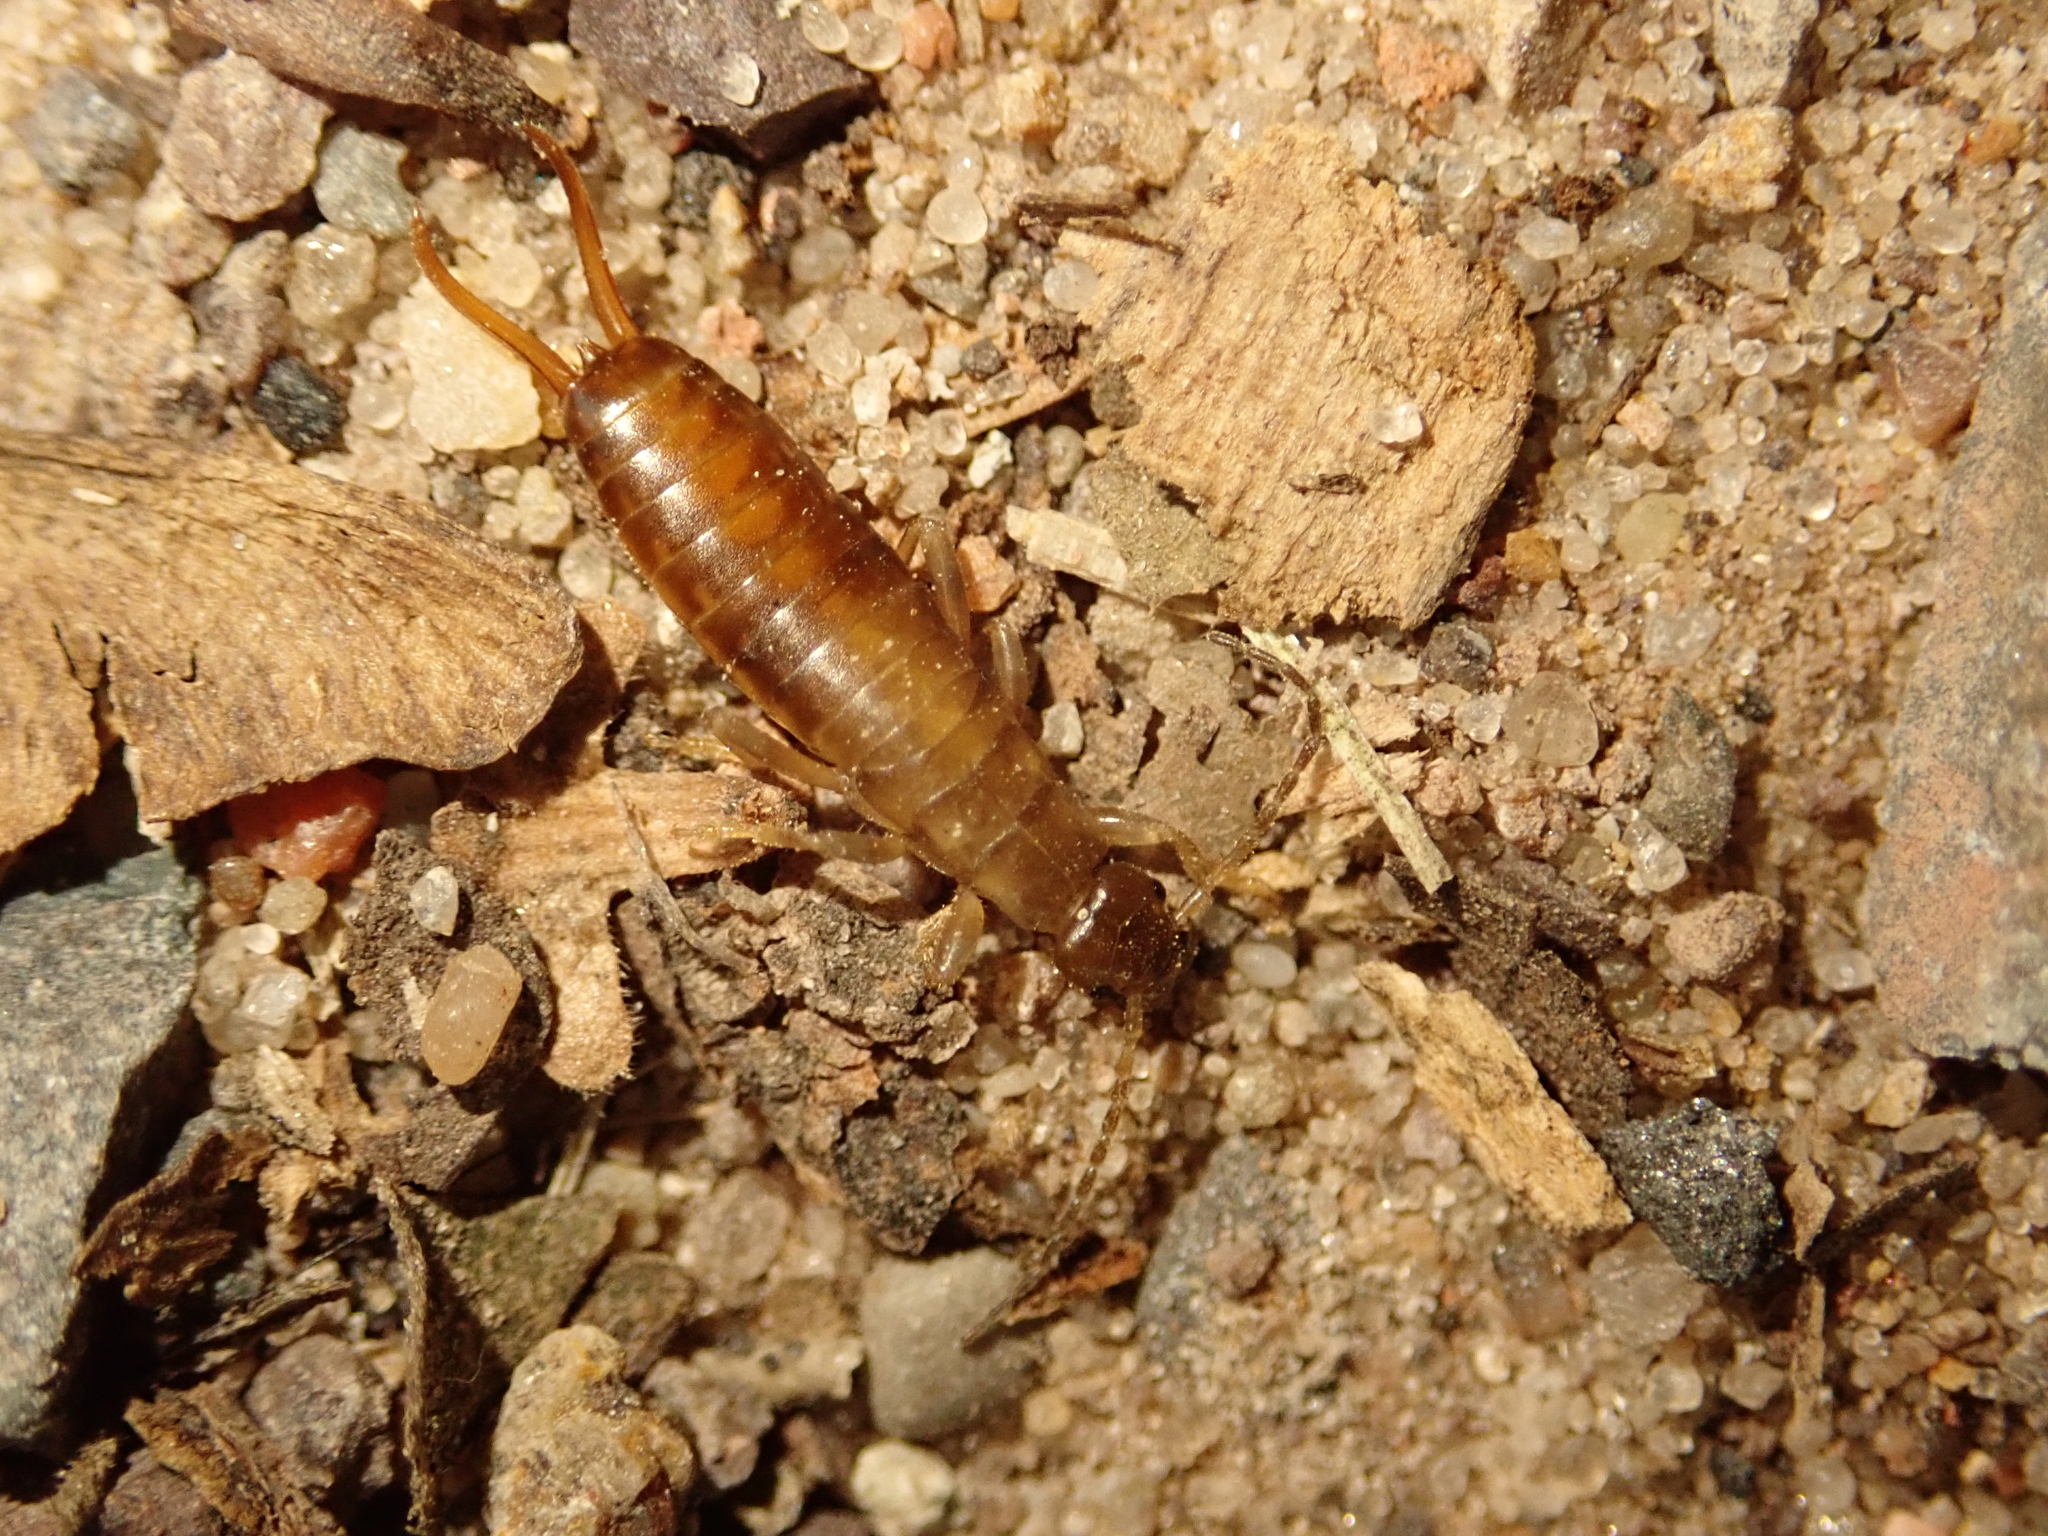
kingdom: Animalia
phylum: Arthropoda
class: Insecta
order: Dermaptera
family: Forficulidae
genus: Chelidurella
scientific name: Chelidurella acanthopygia
